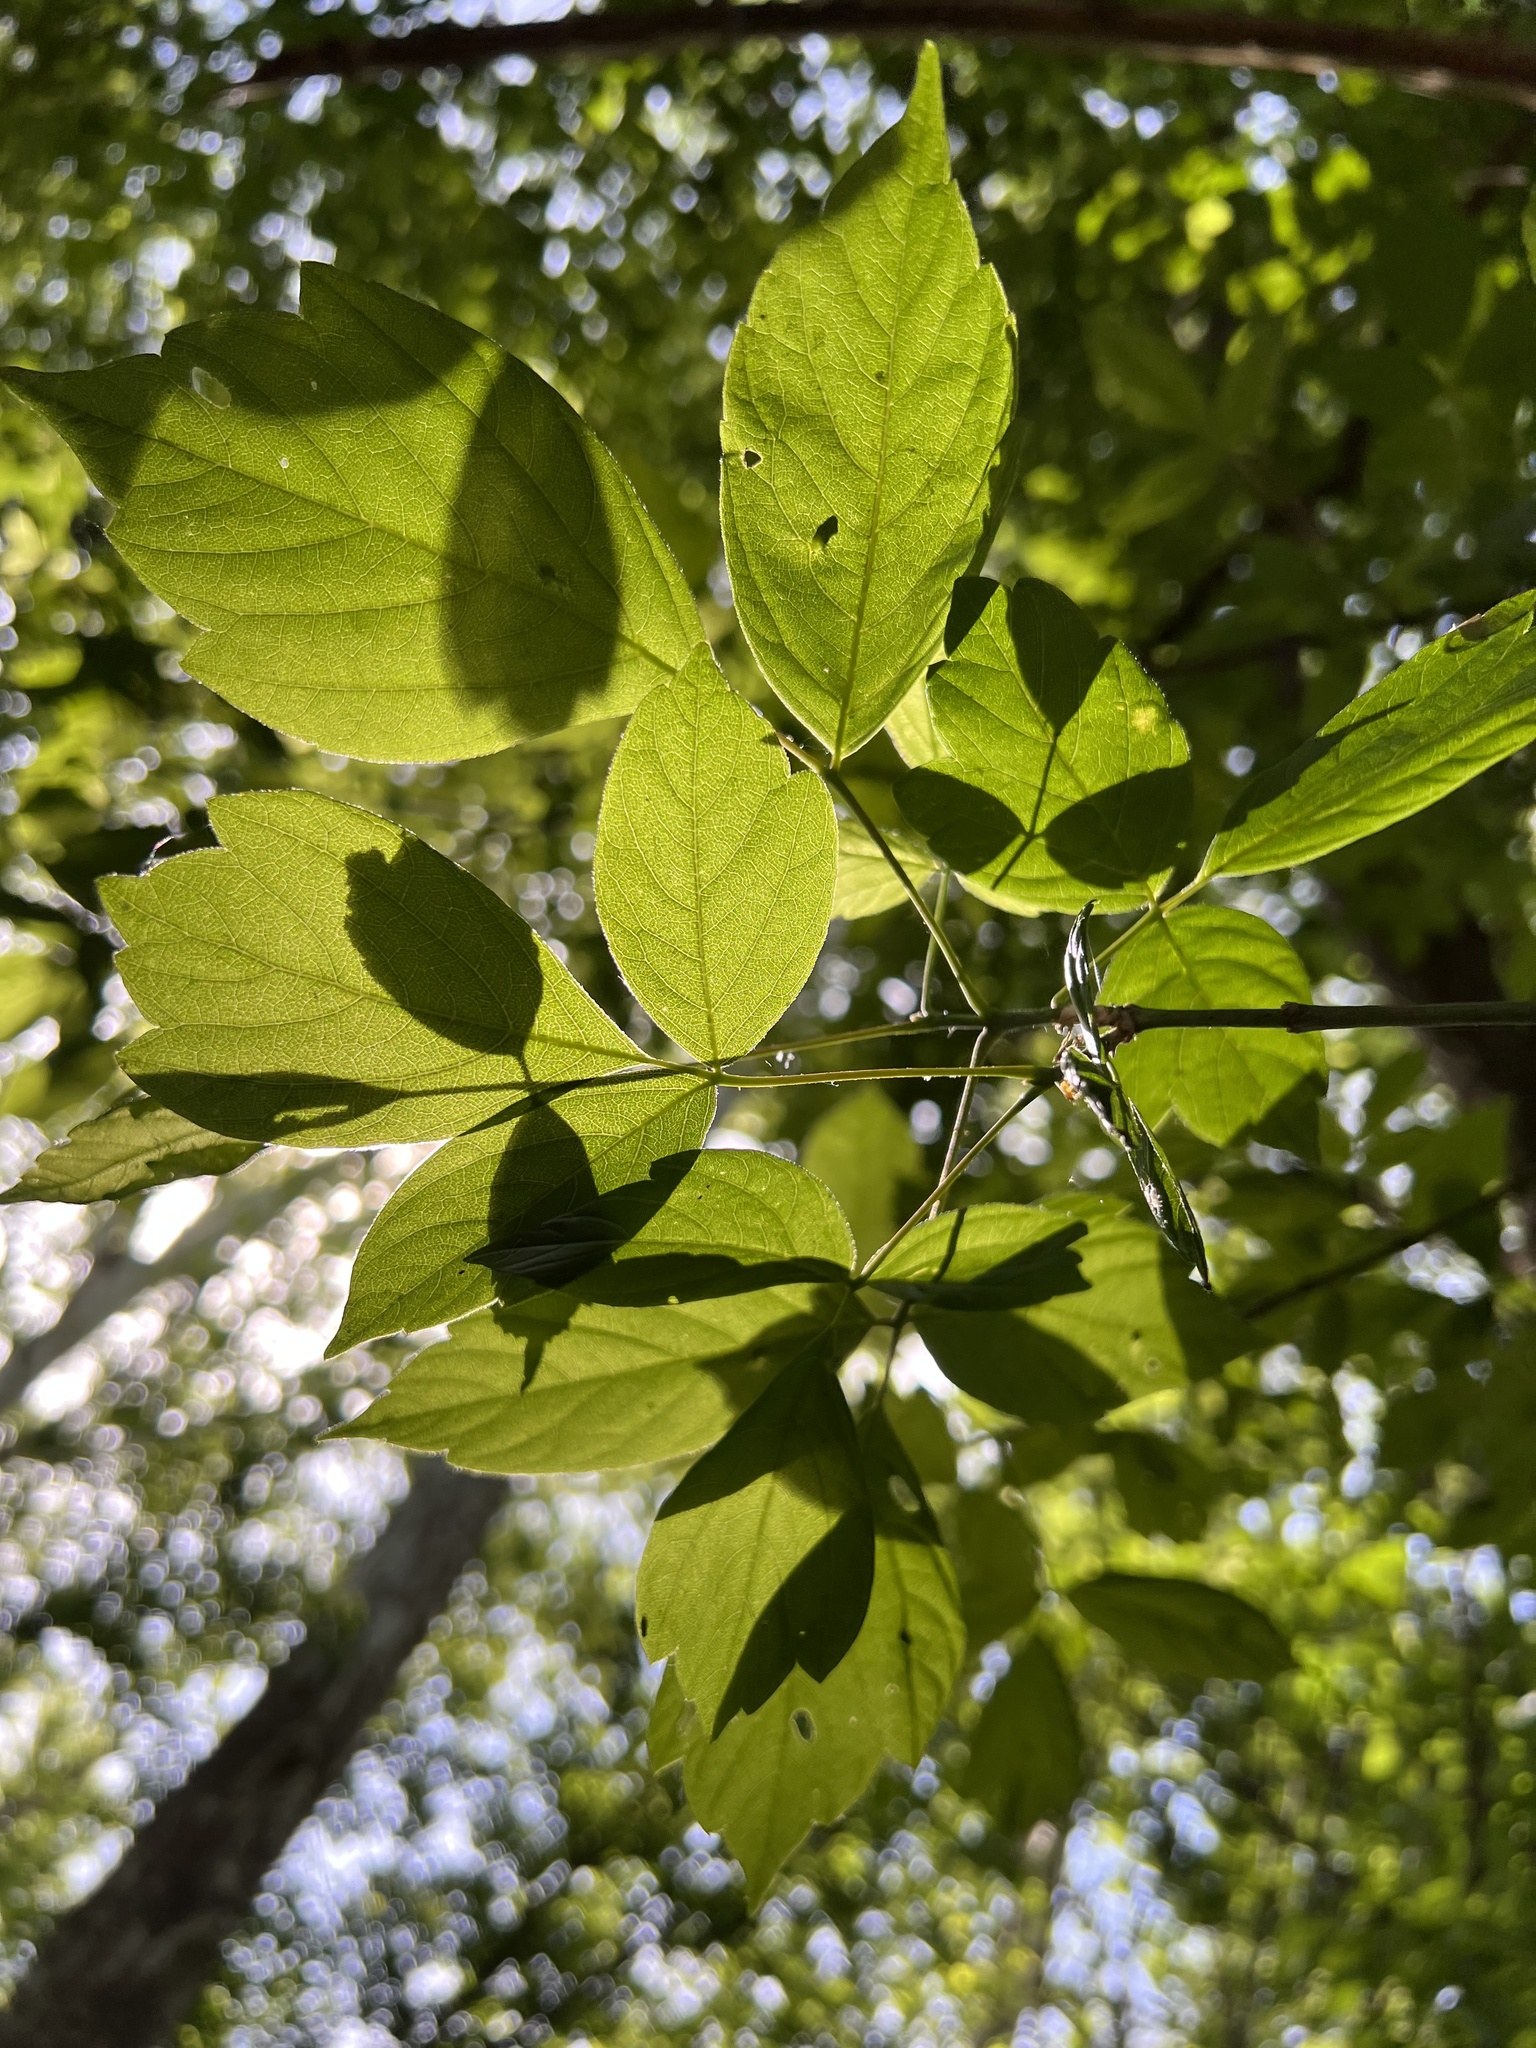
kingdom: Plantae
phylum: Tracheophyta
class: Magnoliopsida
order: Sapindales
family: Sapindaceae
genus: Acer
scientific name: Acer negundo
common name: Ashleaf maple
